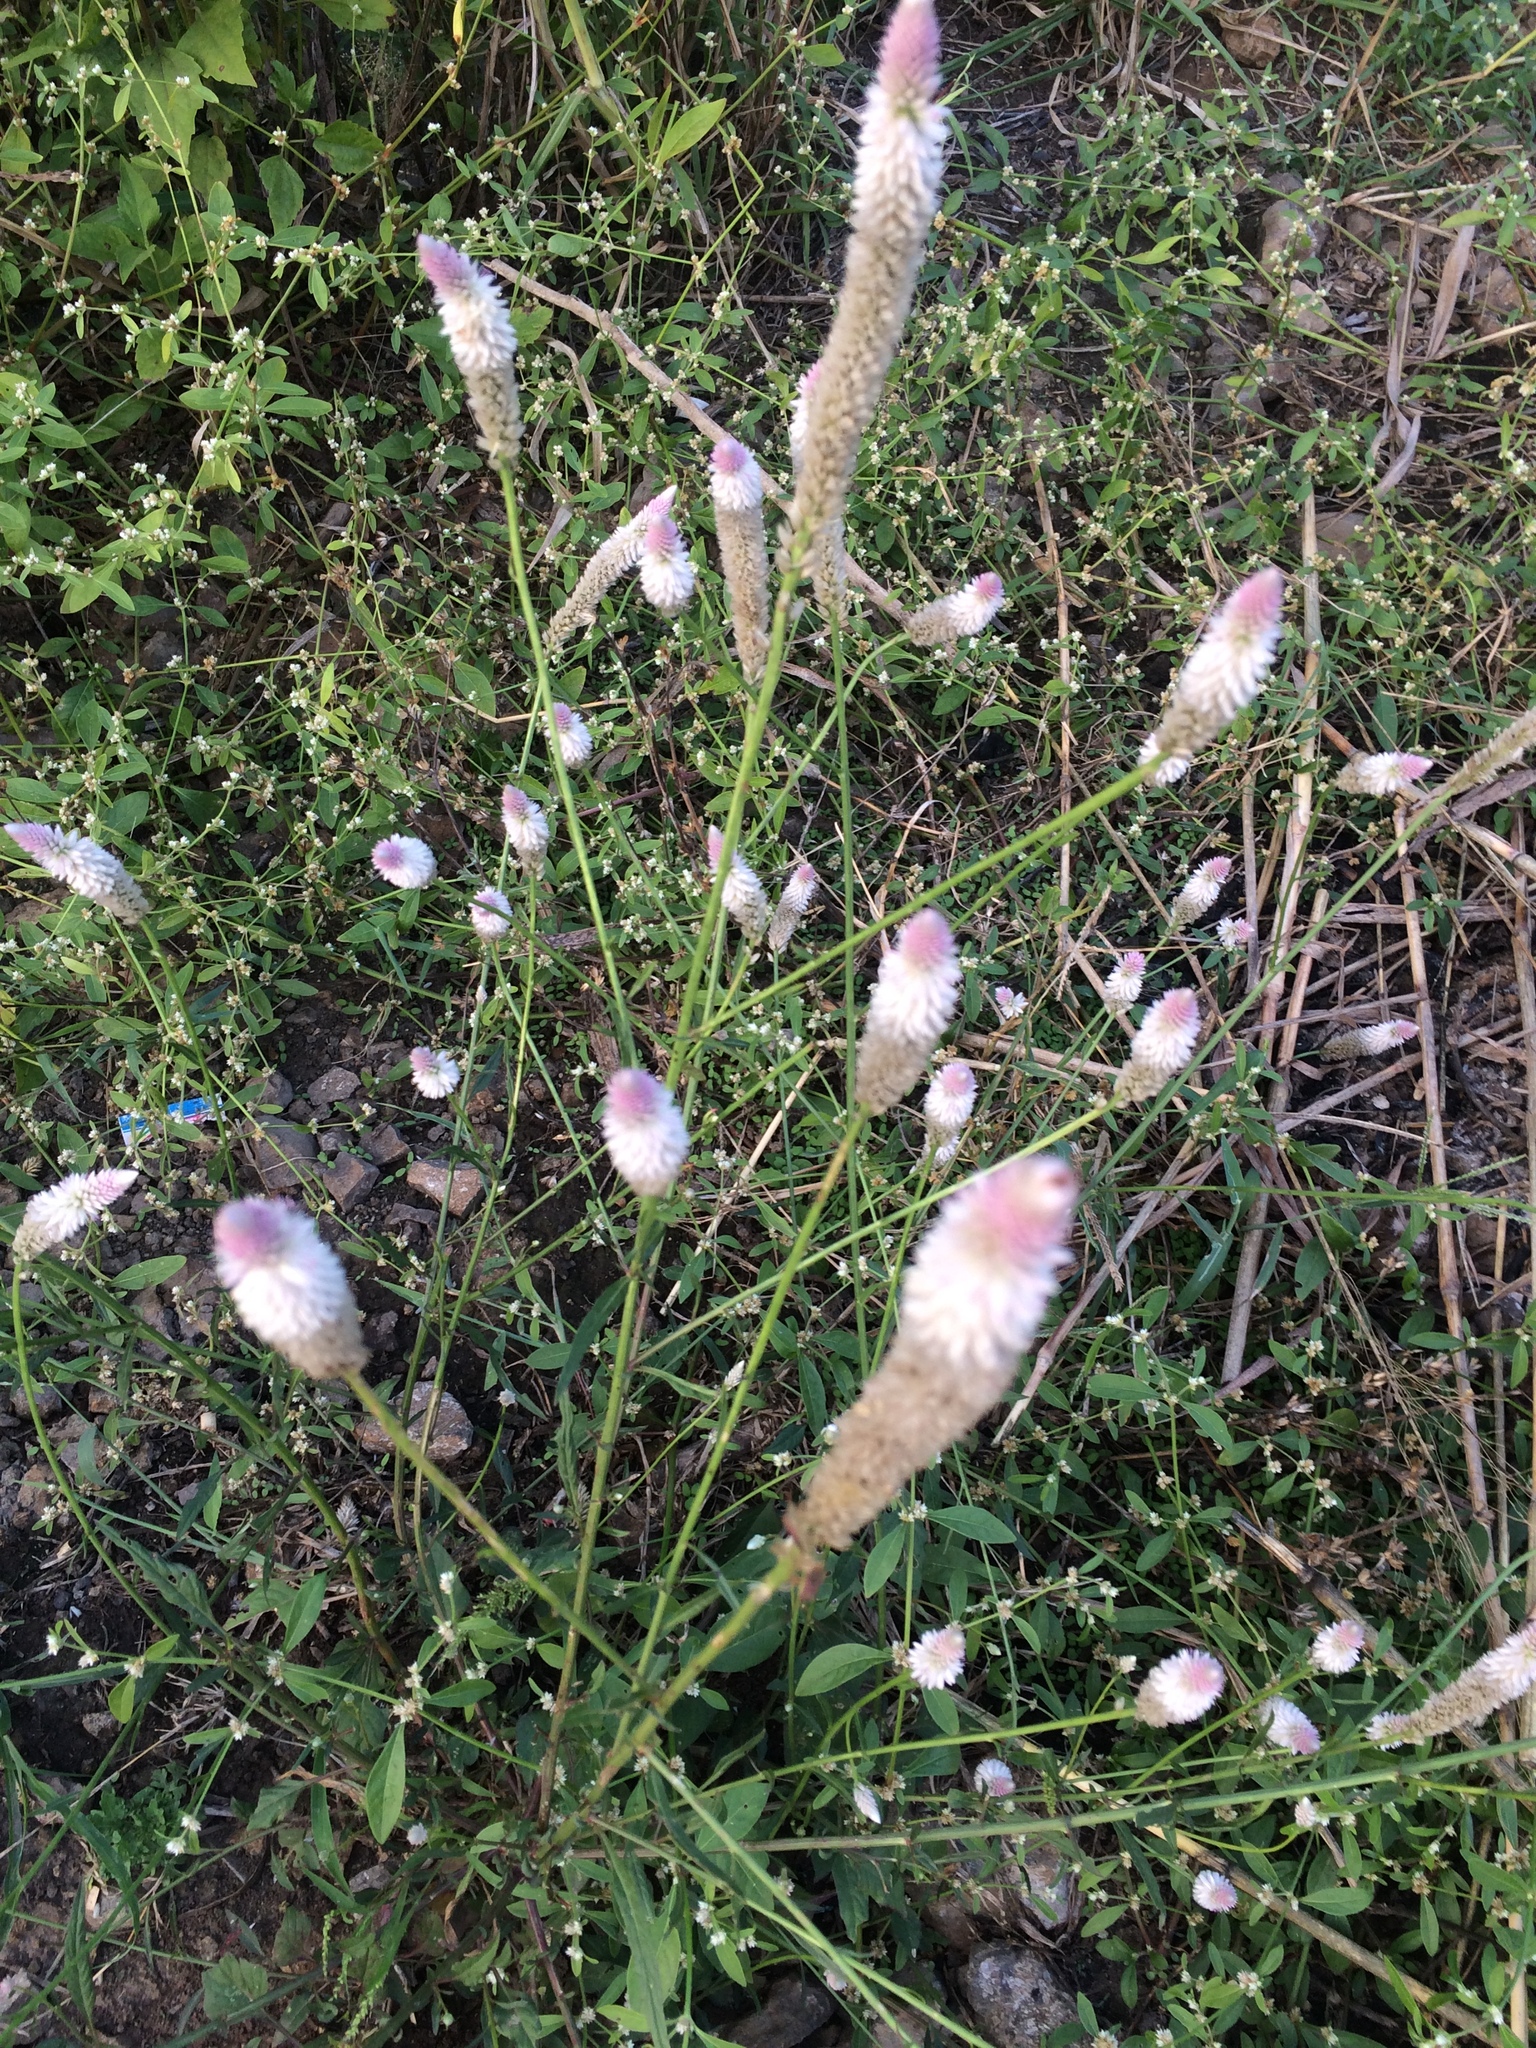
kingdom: Plantae
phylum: Tracheophyta
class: Magnoliopsida
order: Caryophyllales
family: Amaranthaceae
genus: Celosia
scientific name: Celosia argentea
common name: Feather cockscomb
